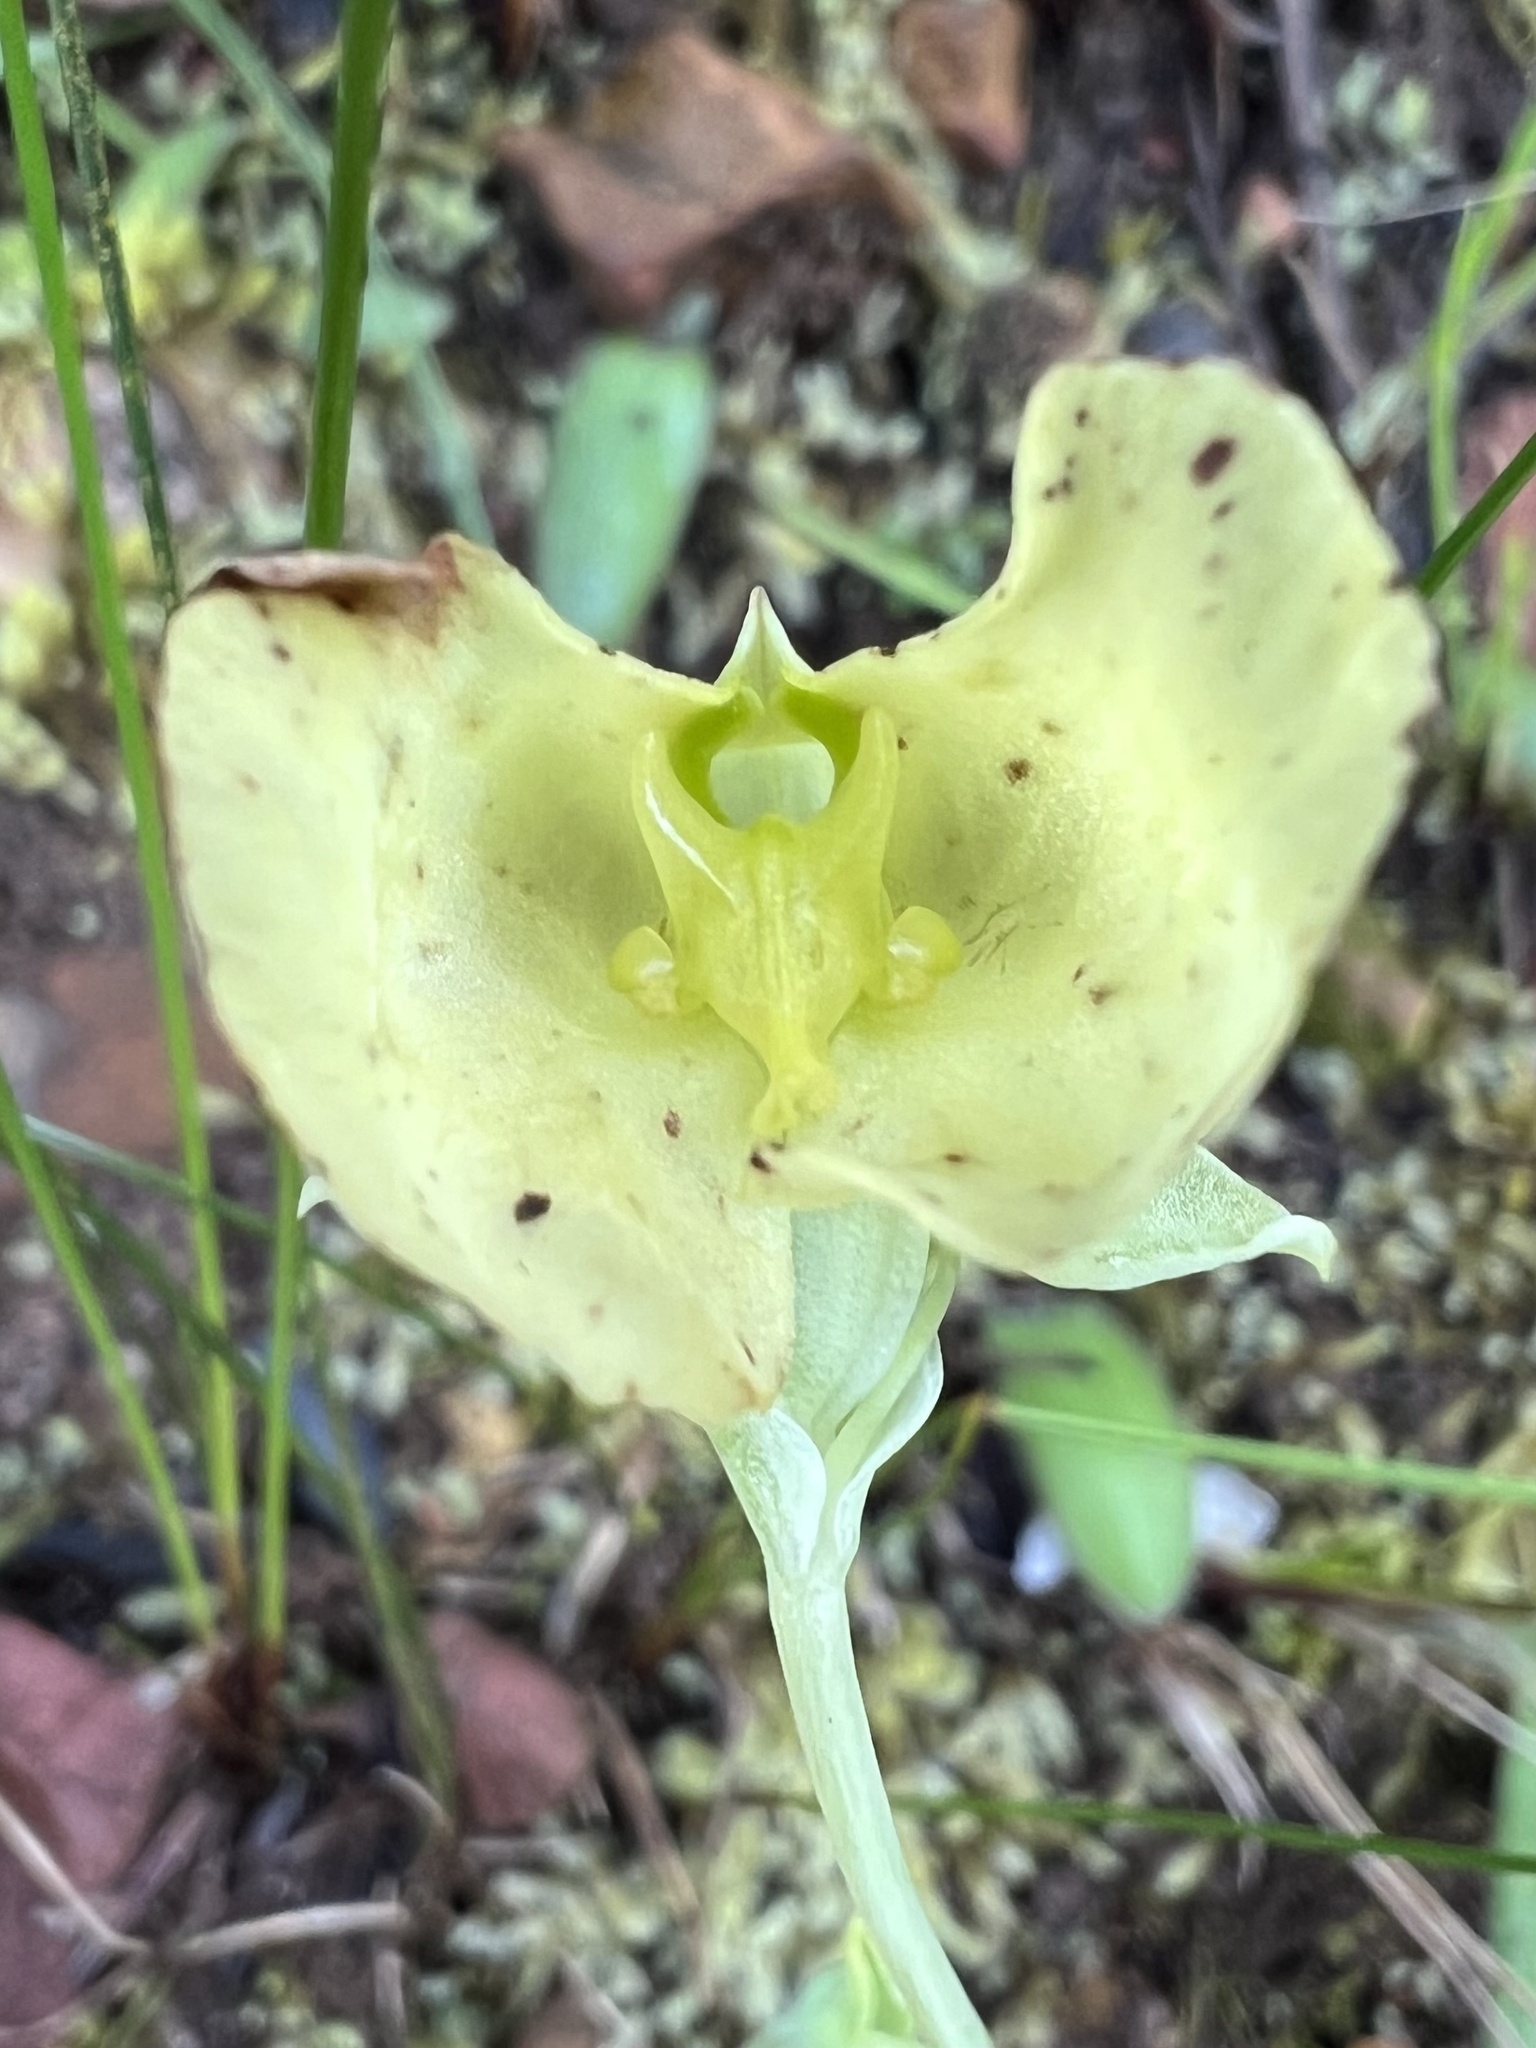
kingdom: Plantae
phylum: Tracheophyta
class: Liliopsida
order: Asparagales
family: Orchidaceae
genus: Pterygodium
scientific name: Pterygodium platypetalum
